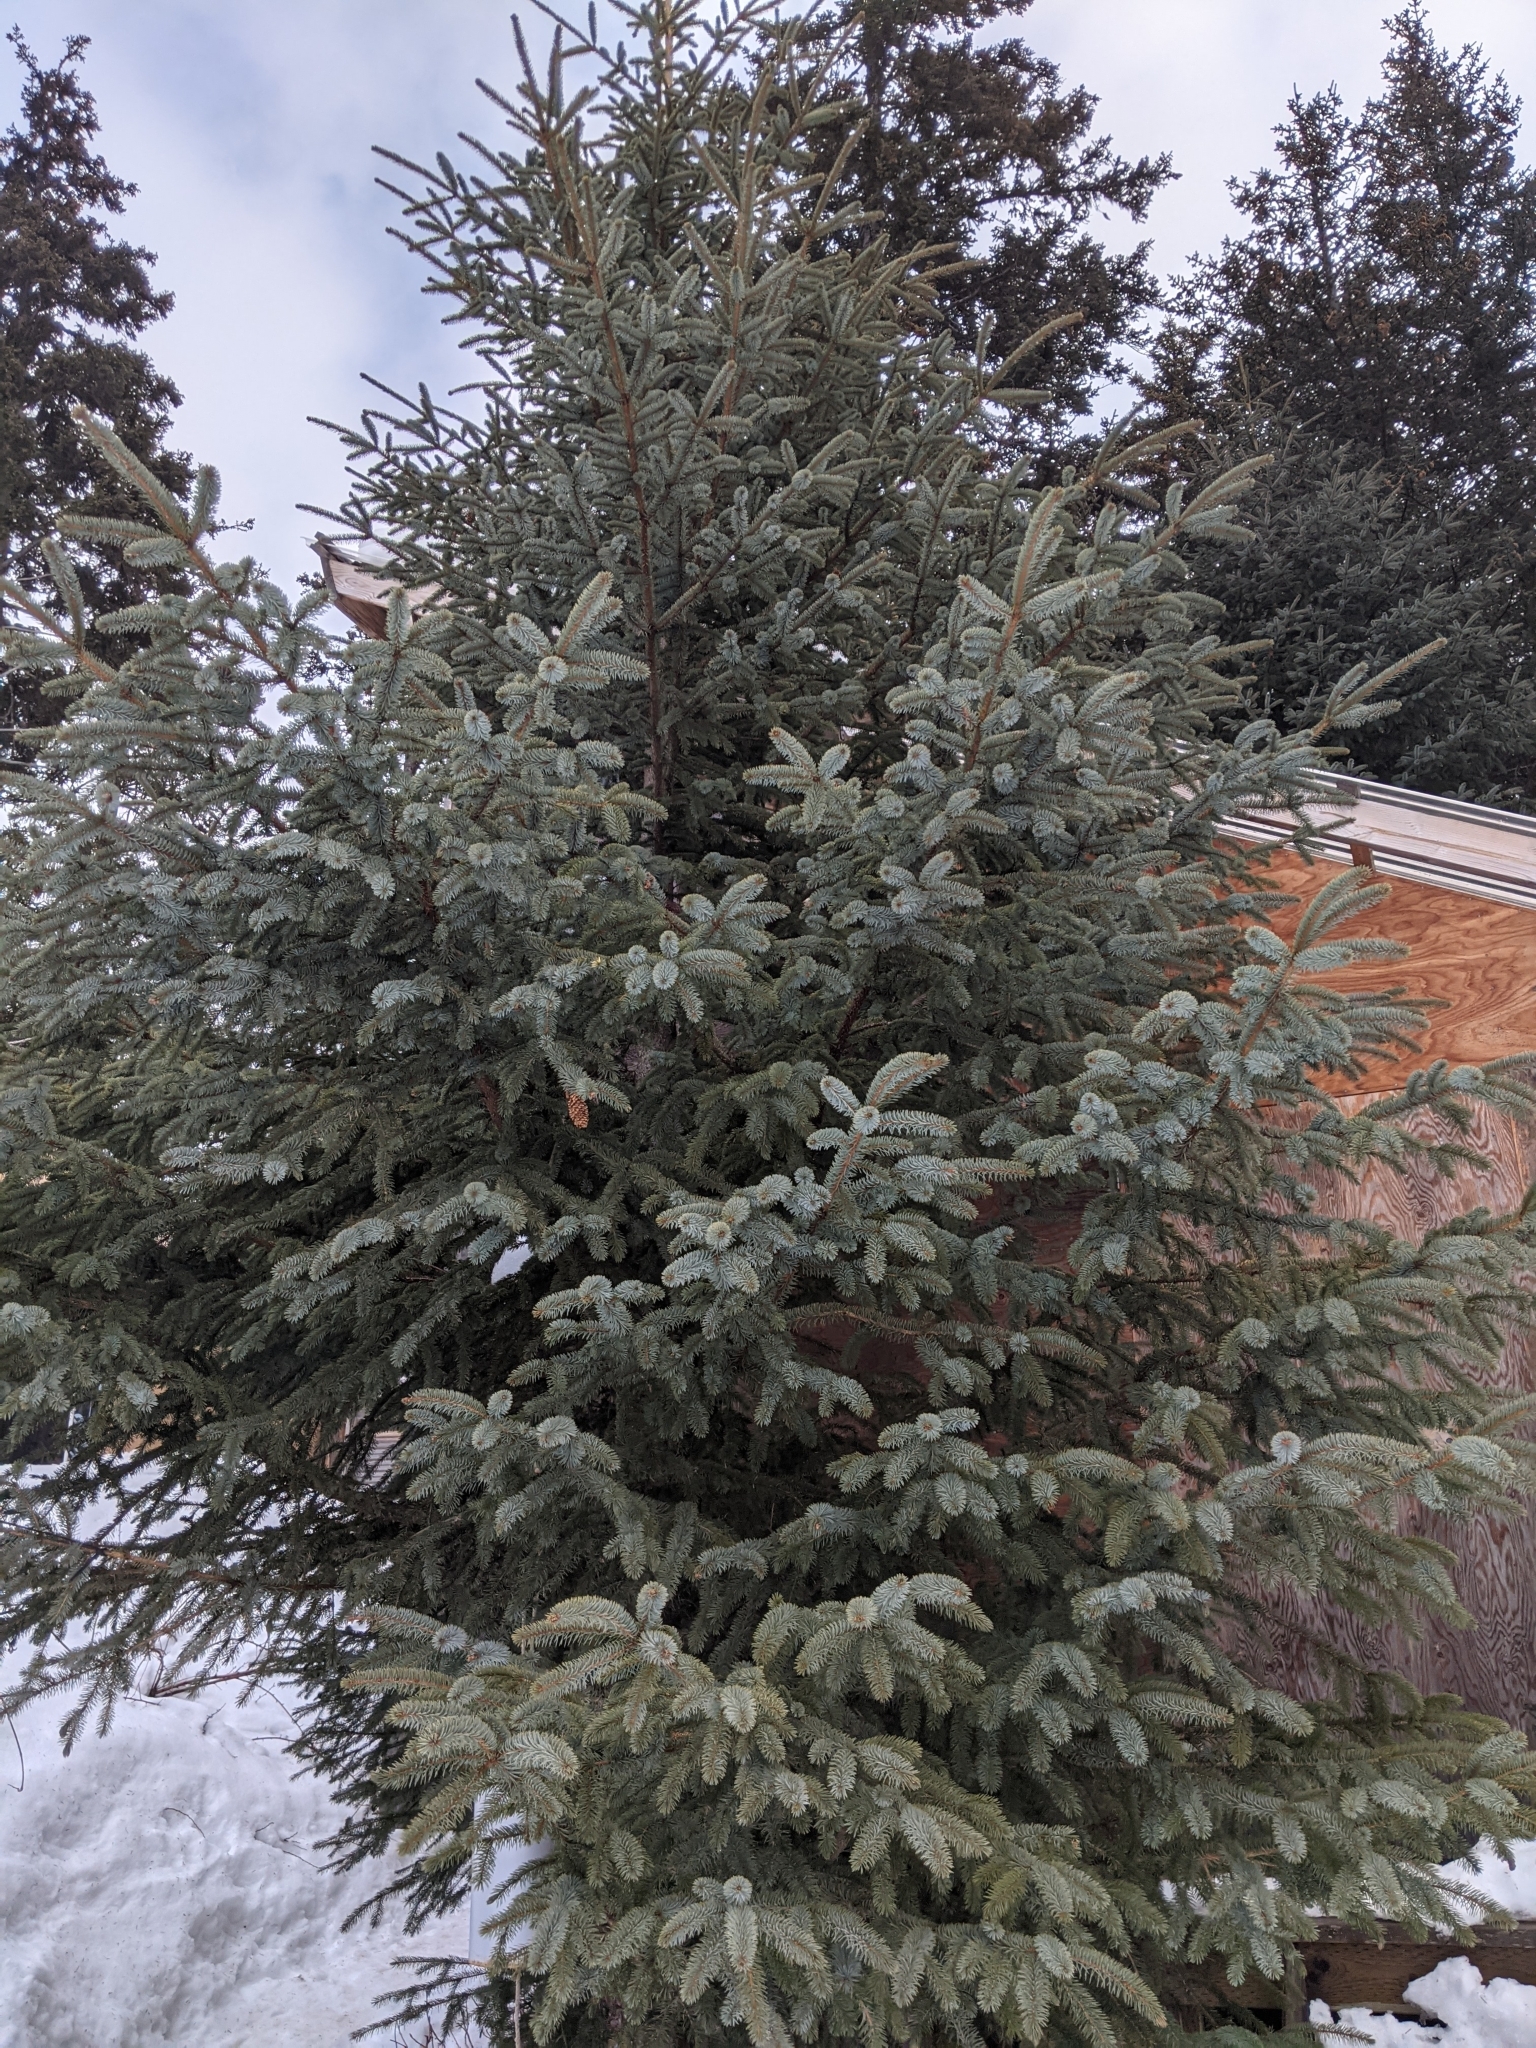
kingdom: Plantae
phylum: Tracheophyta
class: Pinopsida
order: Pinales
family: Pinaceae
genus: Picea
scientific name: Picea sitchensis
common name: Sitka spruce
